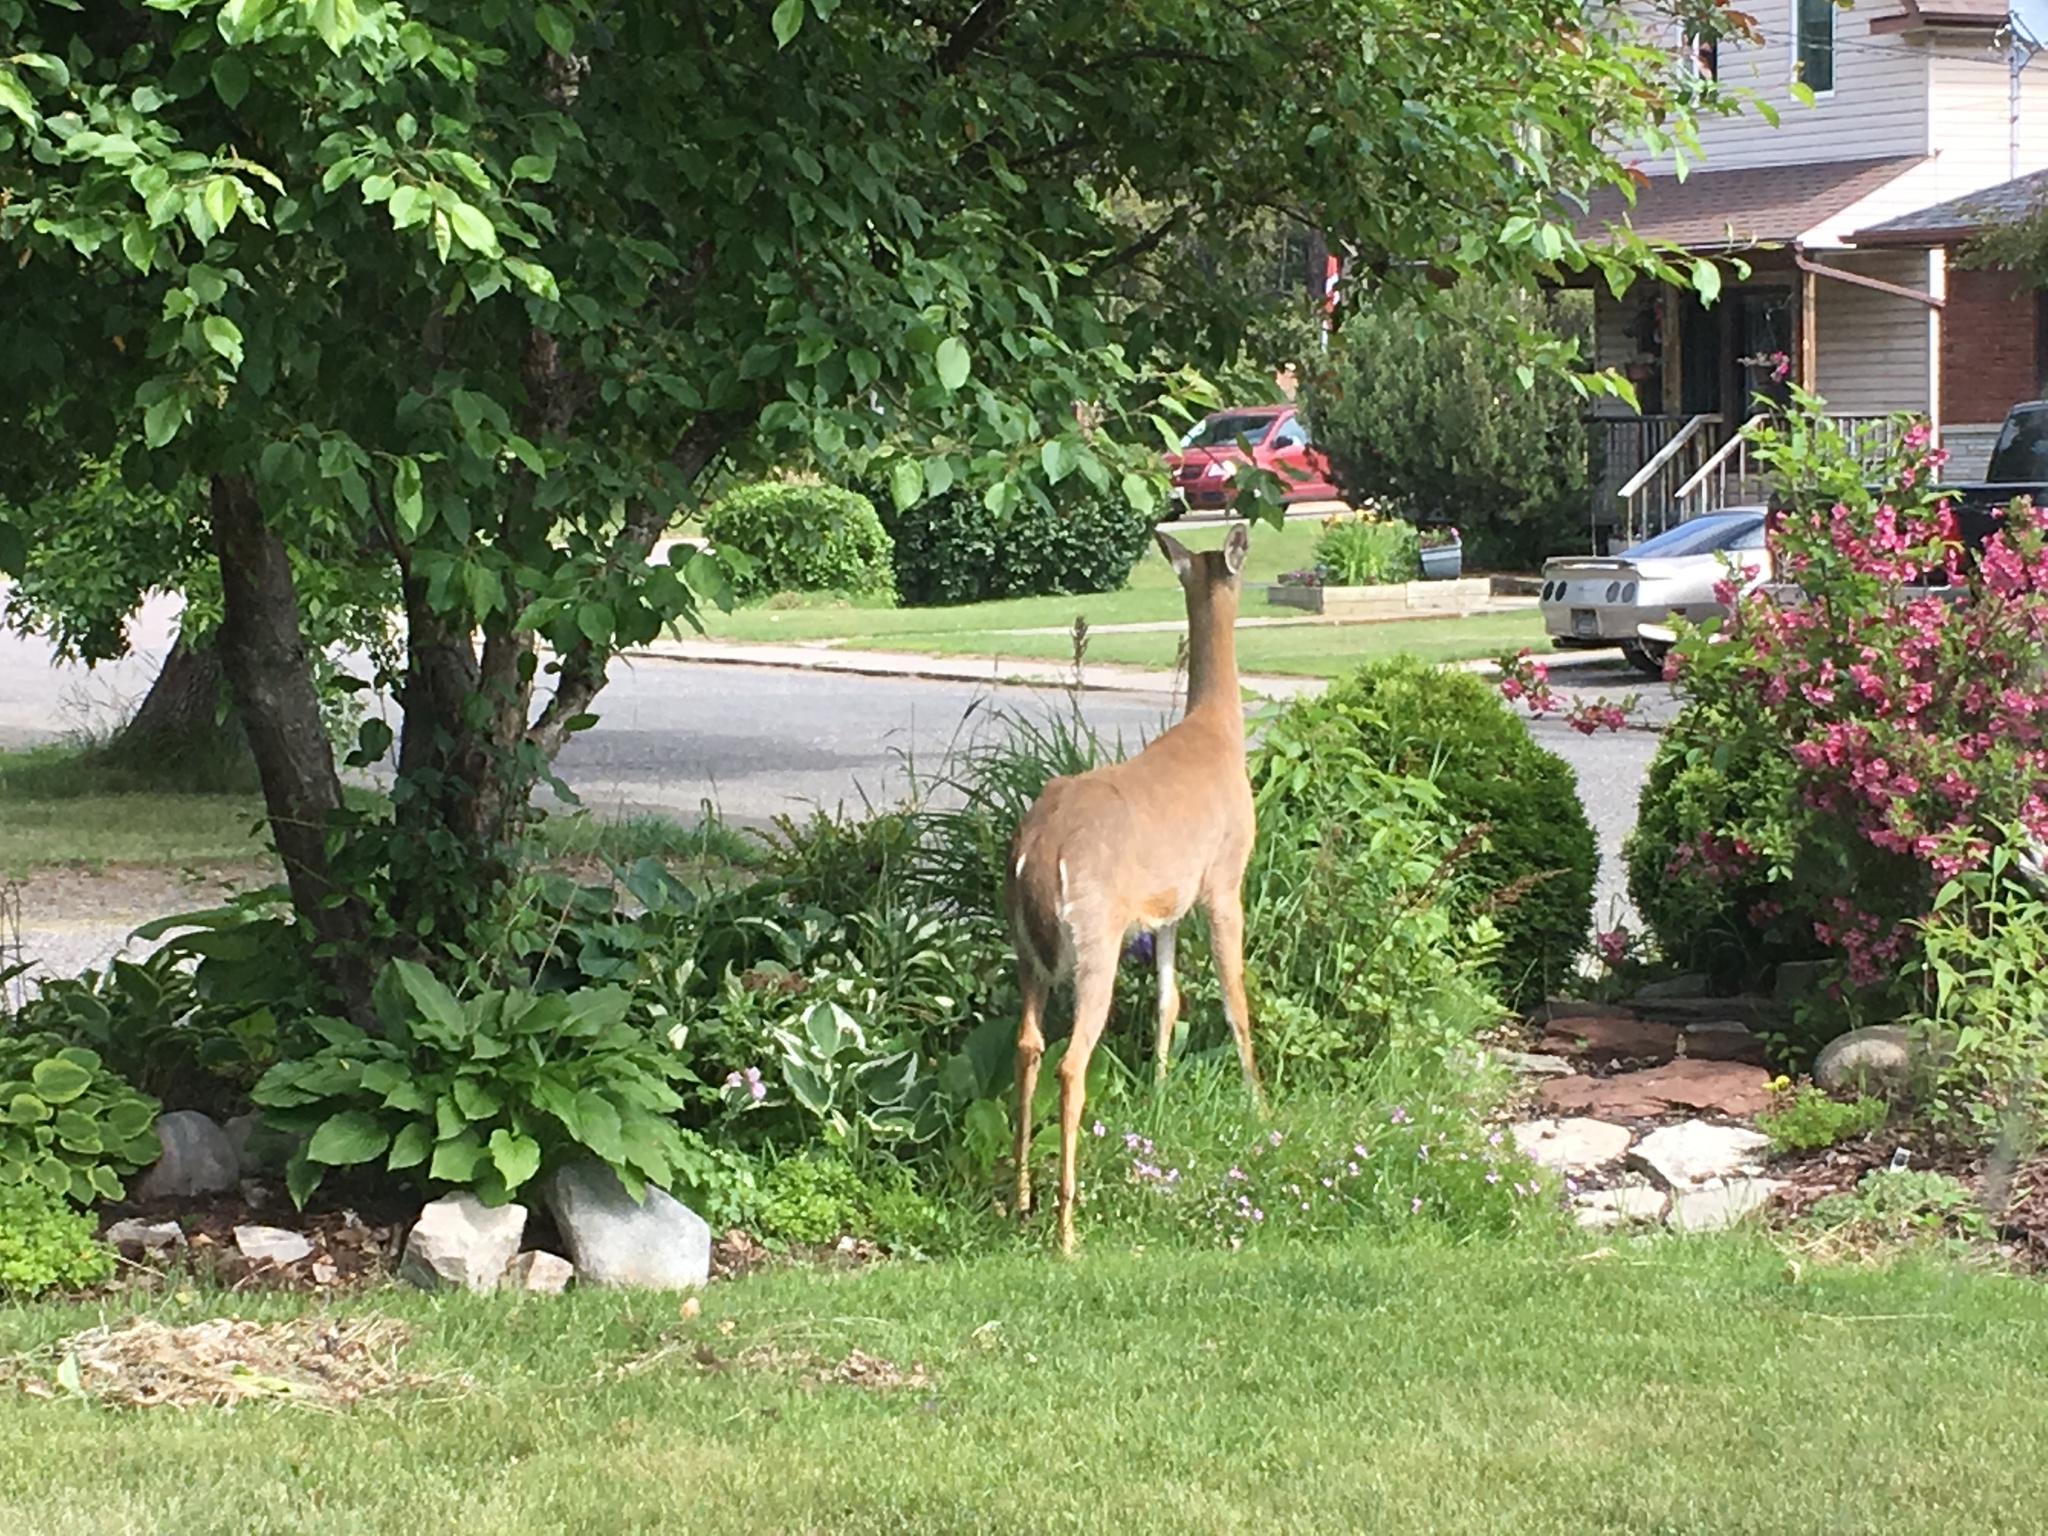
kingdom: Animalia
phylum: Chordata
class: Mammalia
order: Artiodactyla
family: Cervidae
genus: Odocoileus
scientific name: Odocoileus virginianus
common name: White-tailed deer
